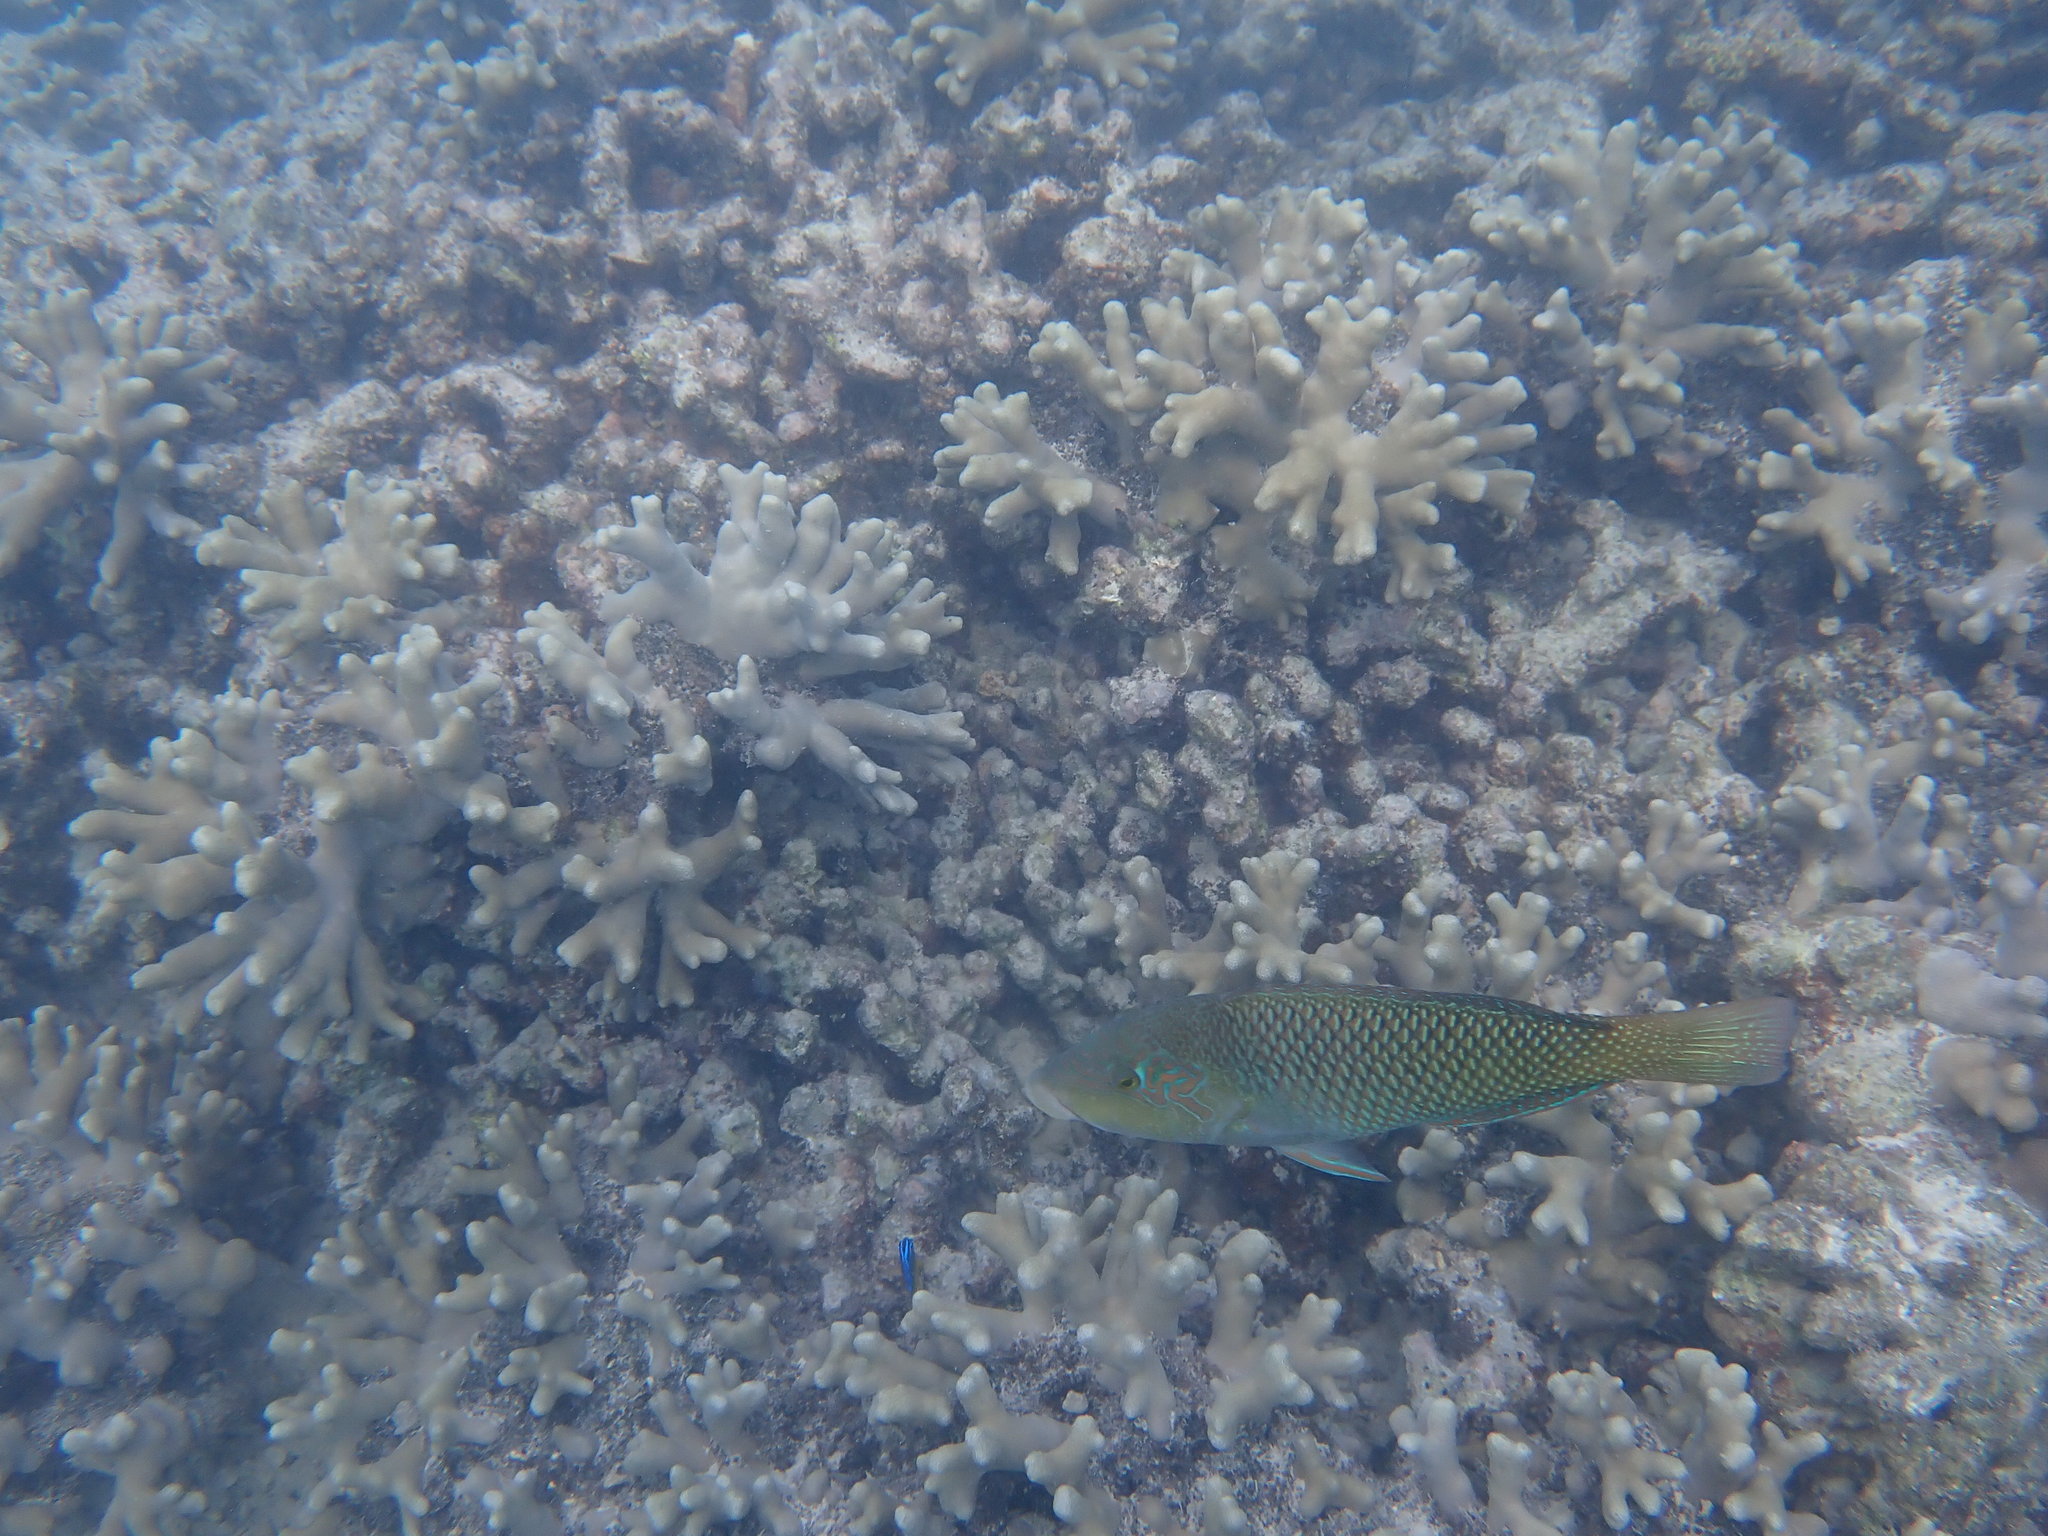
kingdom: Animalia
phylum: Chordata
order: Perciformes
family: Labridae
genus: Hemigymnus
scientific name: Hemigymnus melapterus
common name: Blackeye thicklip
